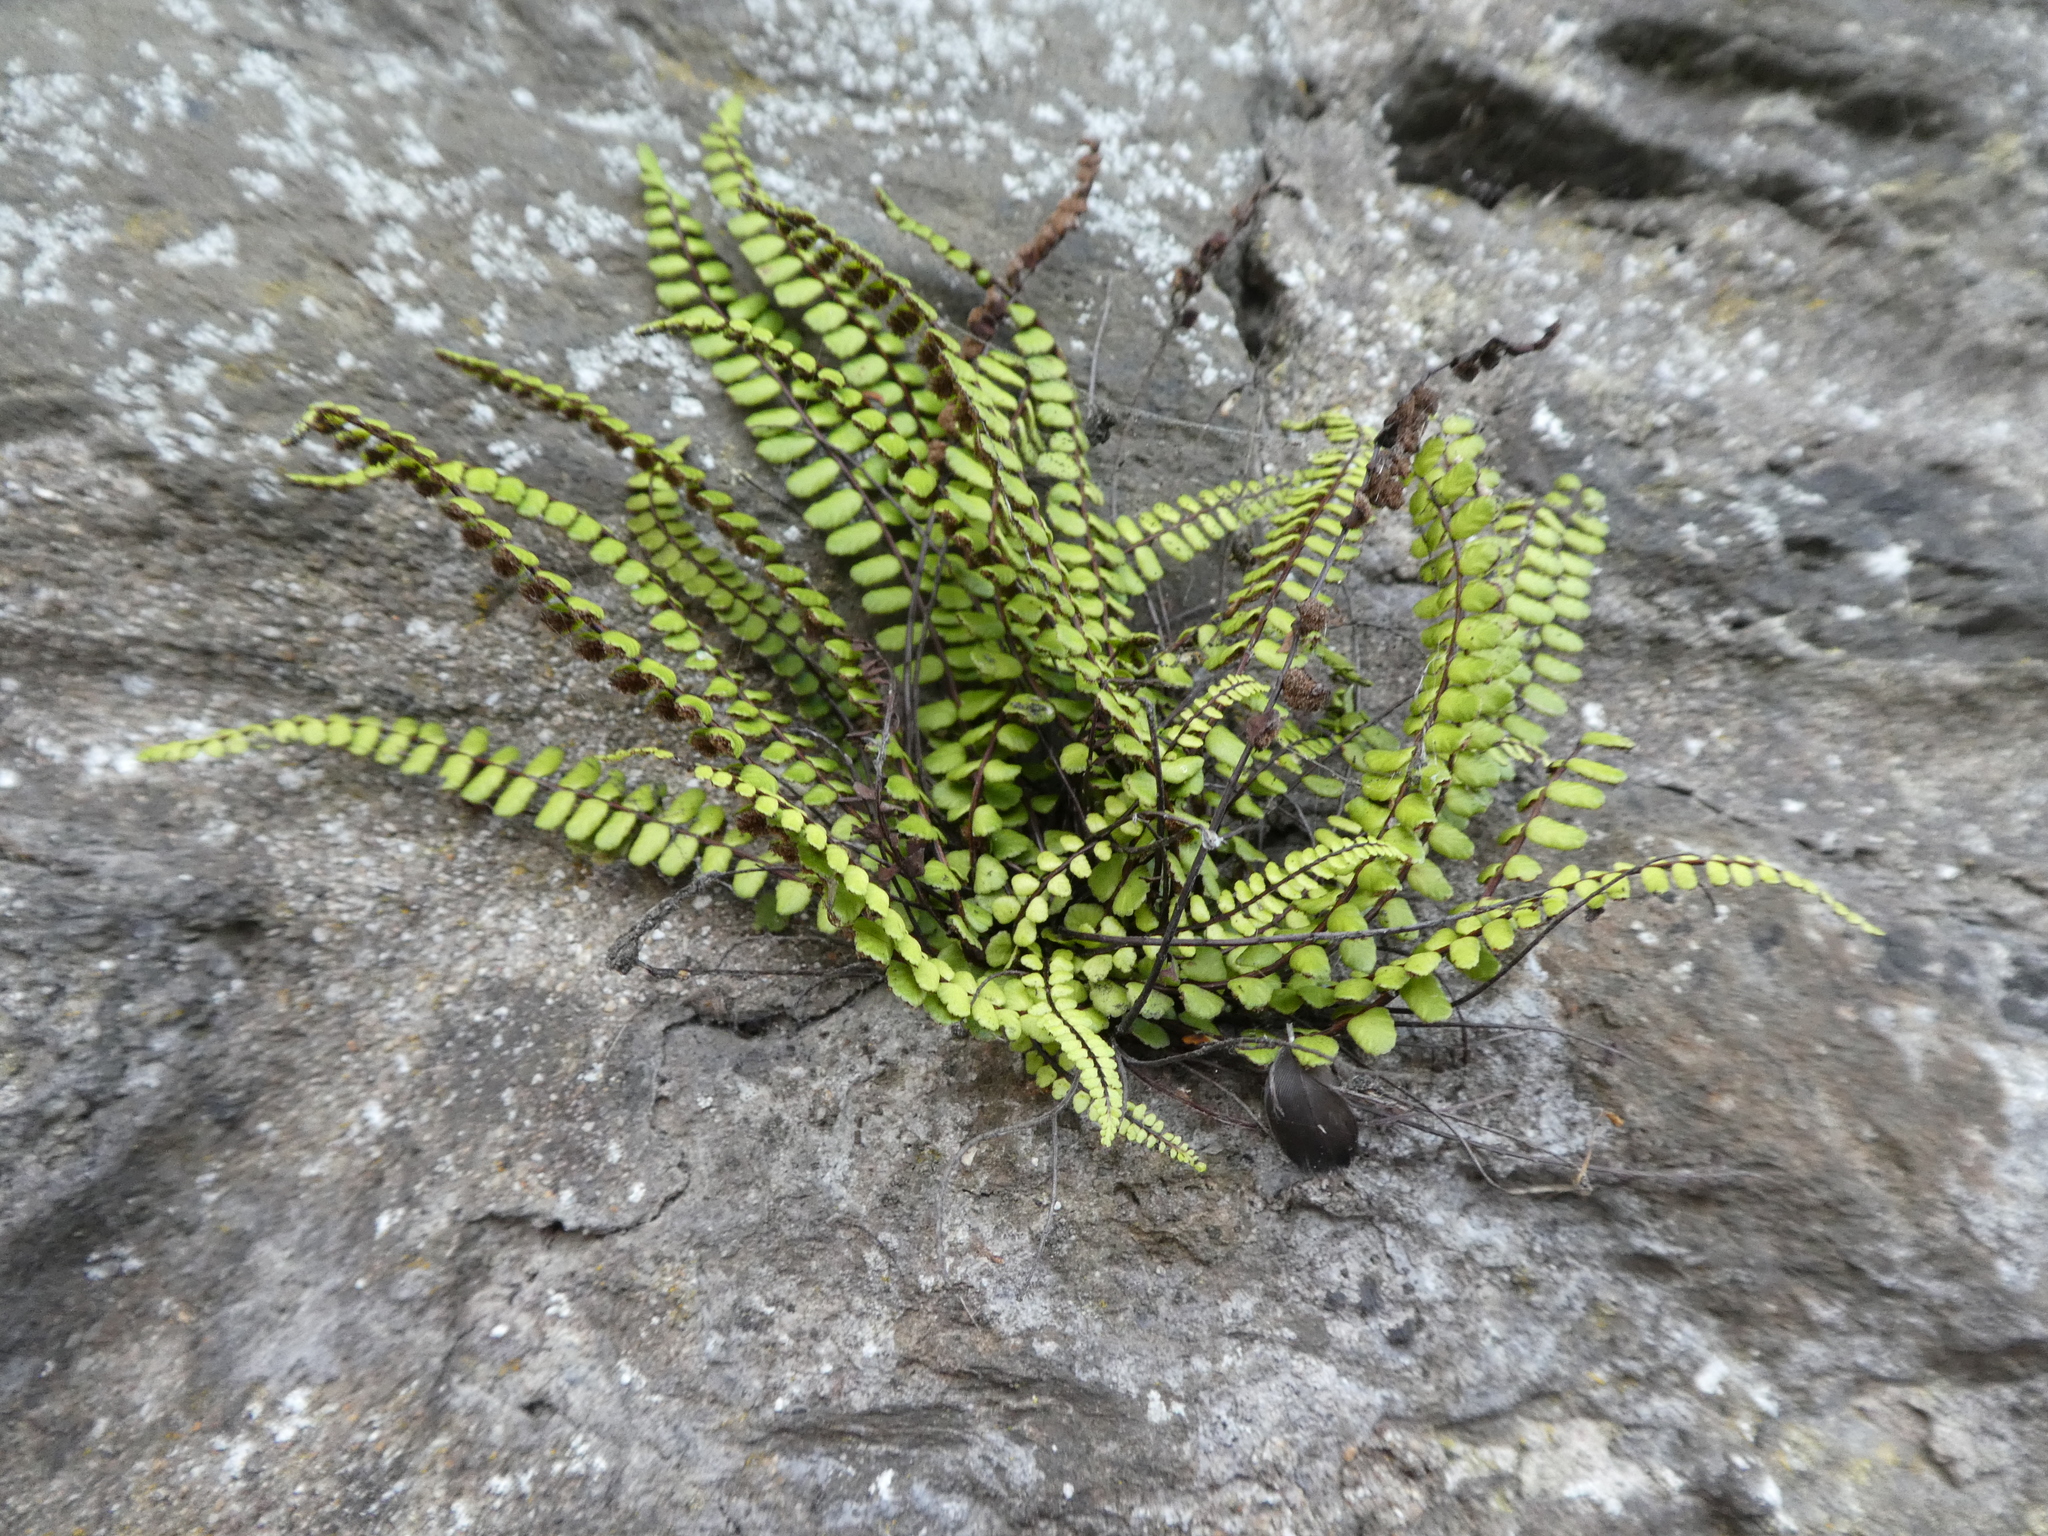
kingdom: Plantae
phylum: Tracheophyta
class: Polypodiopsida
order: Polypodiales
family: Aspleniaceae
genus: Asplenium
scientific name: Asplenium trichomanes
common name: Maidenhair spleenwort
